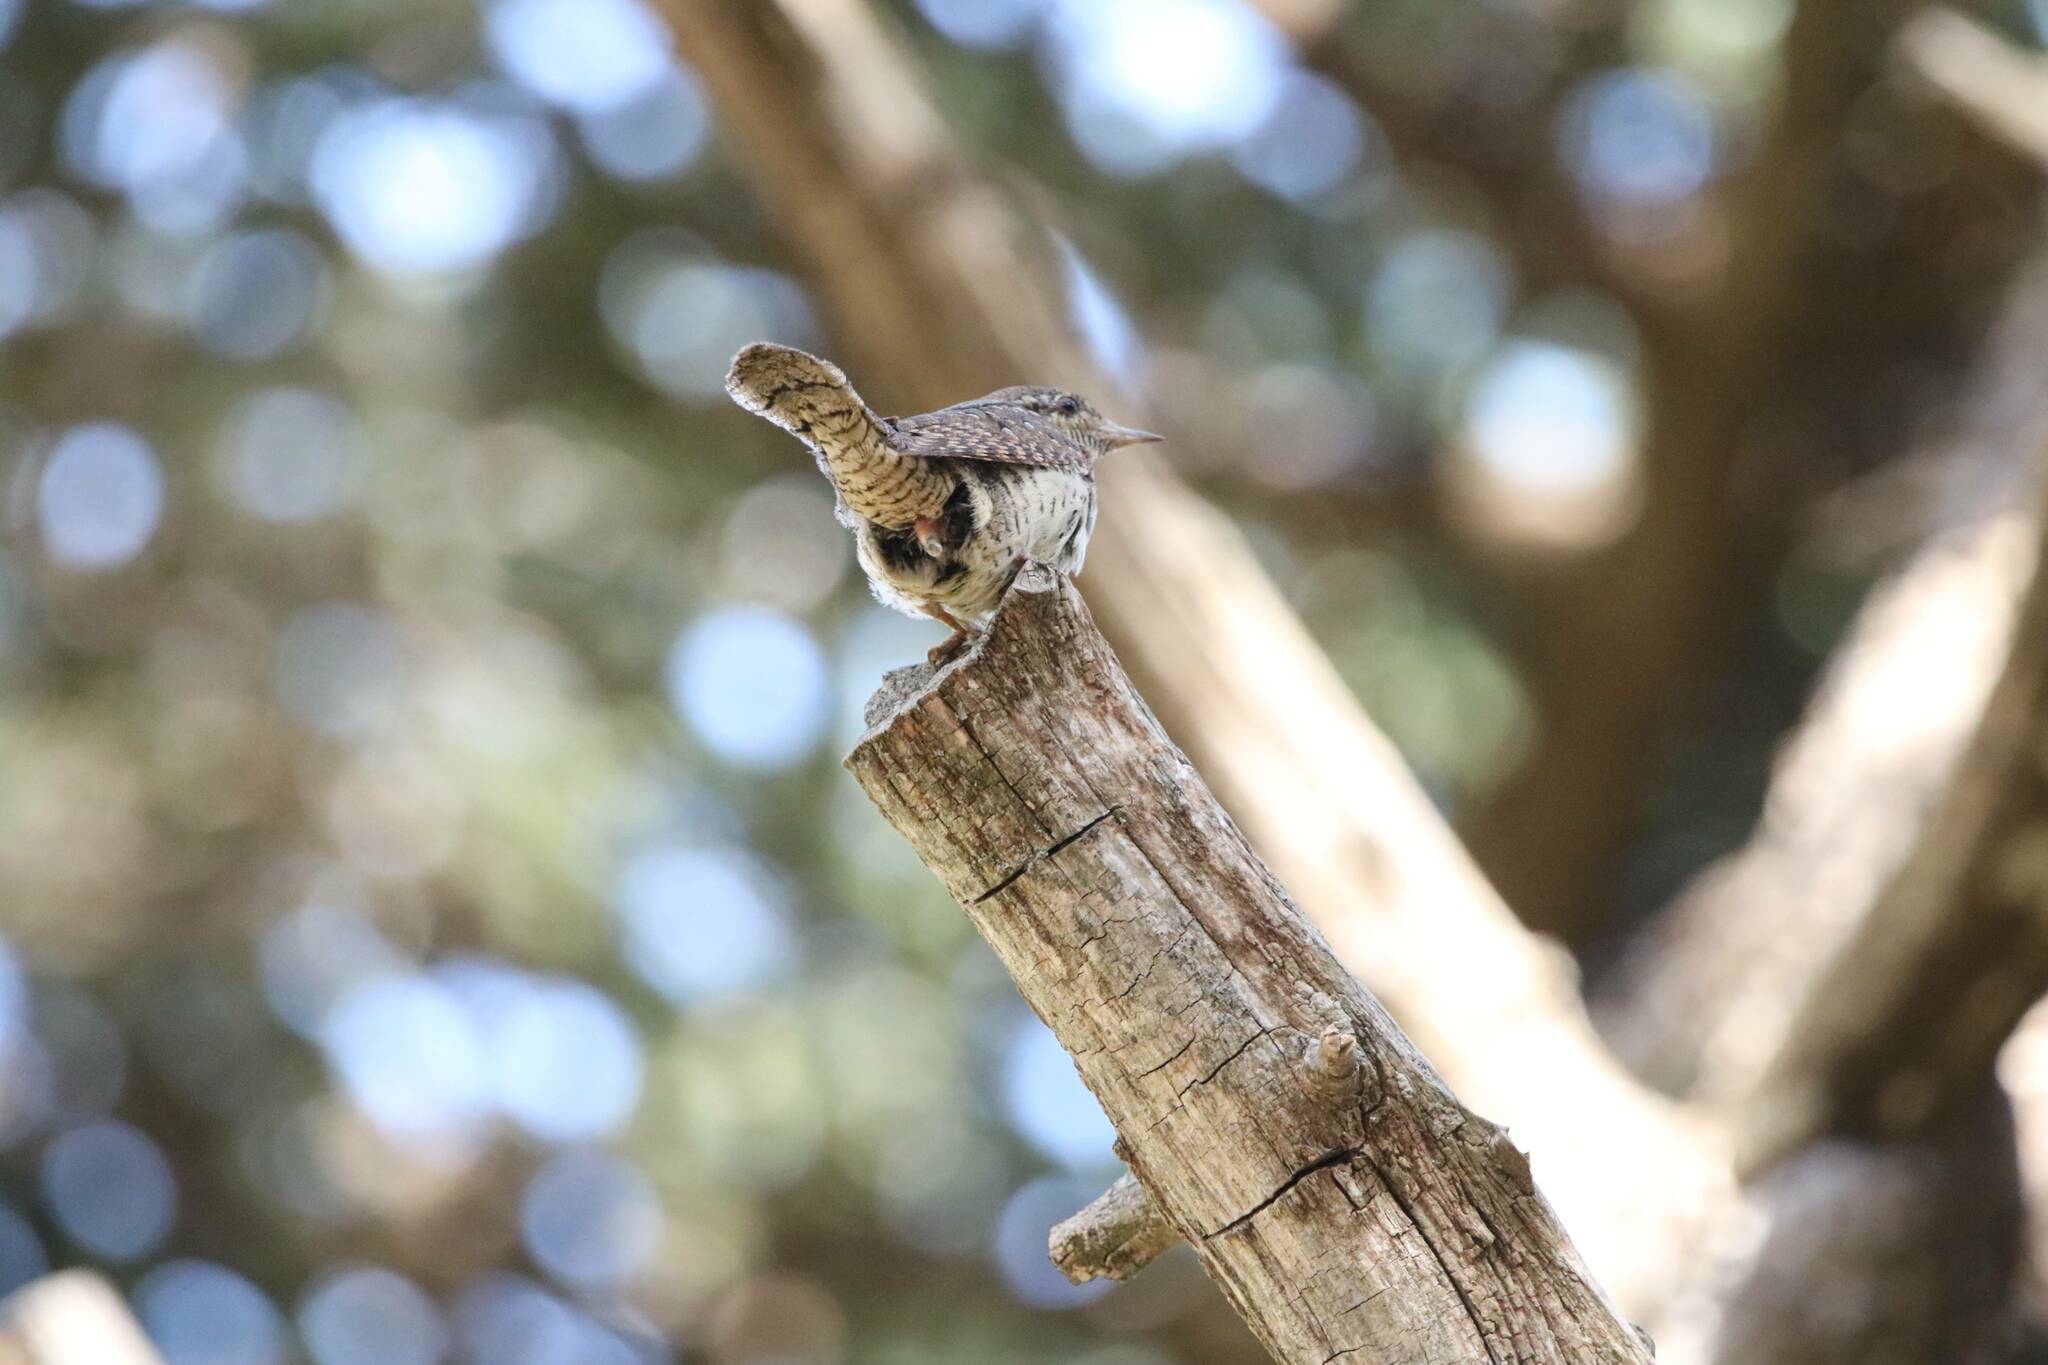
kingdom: Animalia
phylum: Chordata
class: Aves
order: Piciformes
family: Picidae
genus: Jynx
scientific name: Jynx torquilla
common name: Eurasian wryneck
